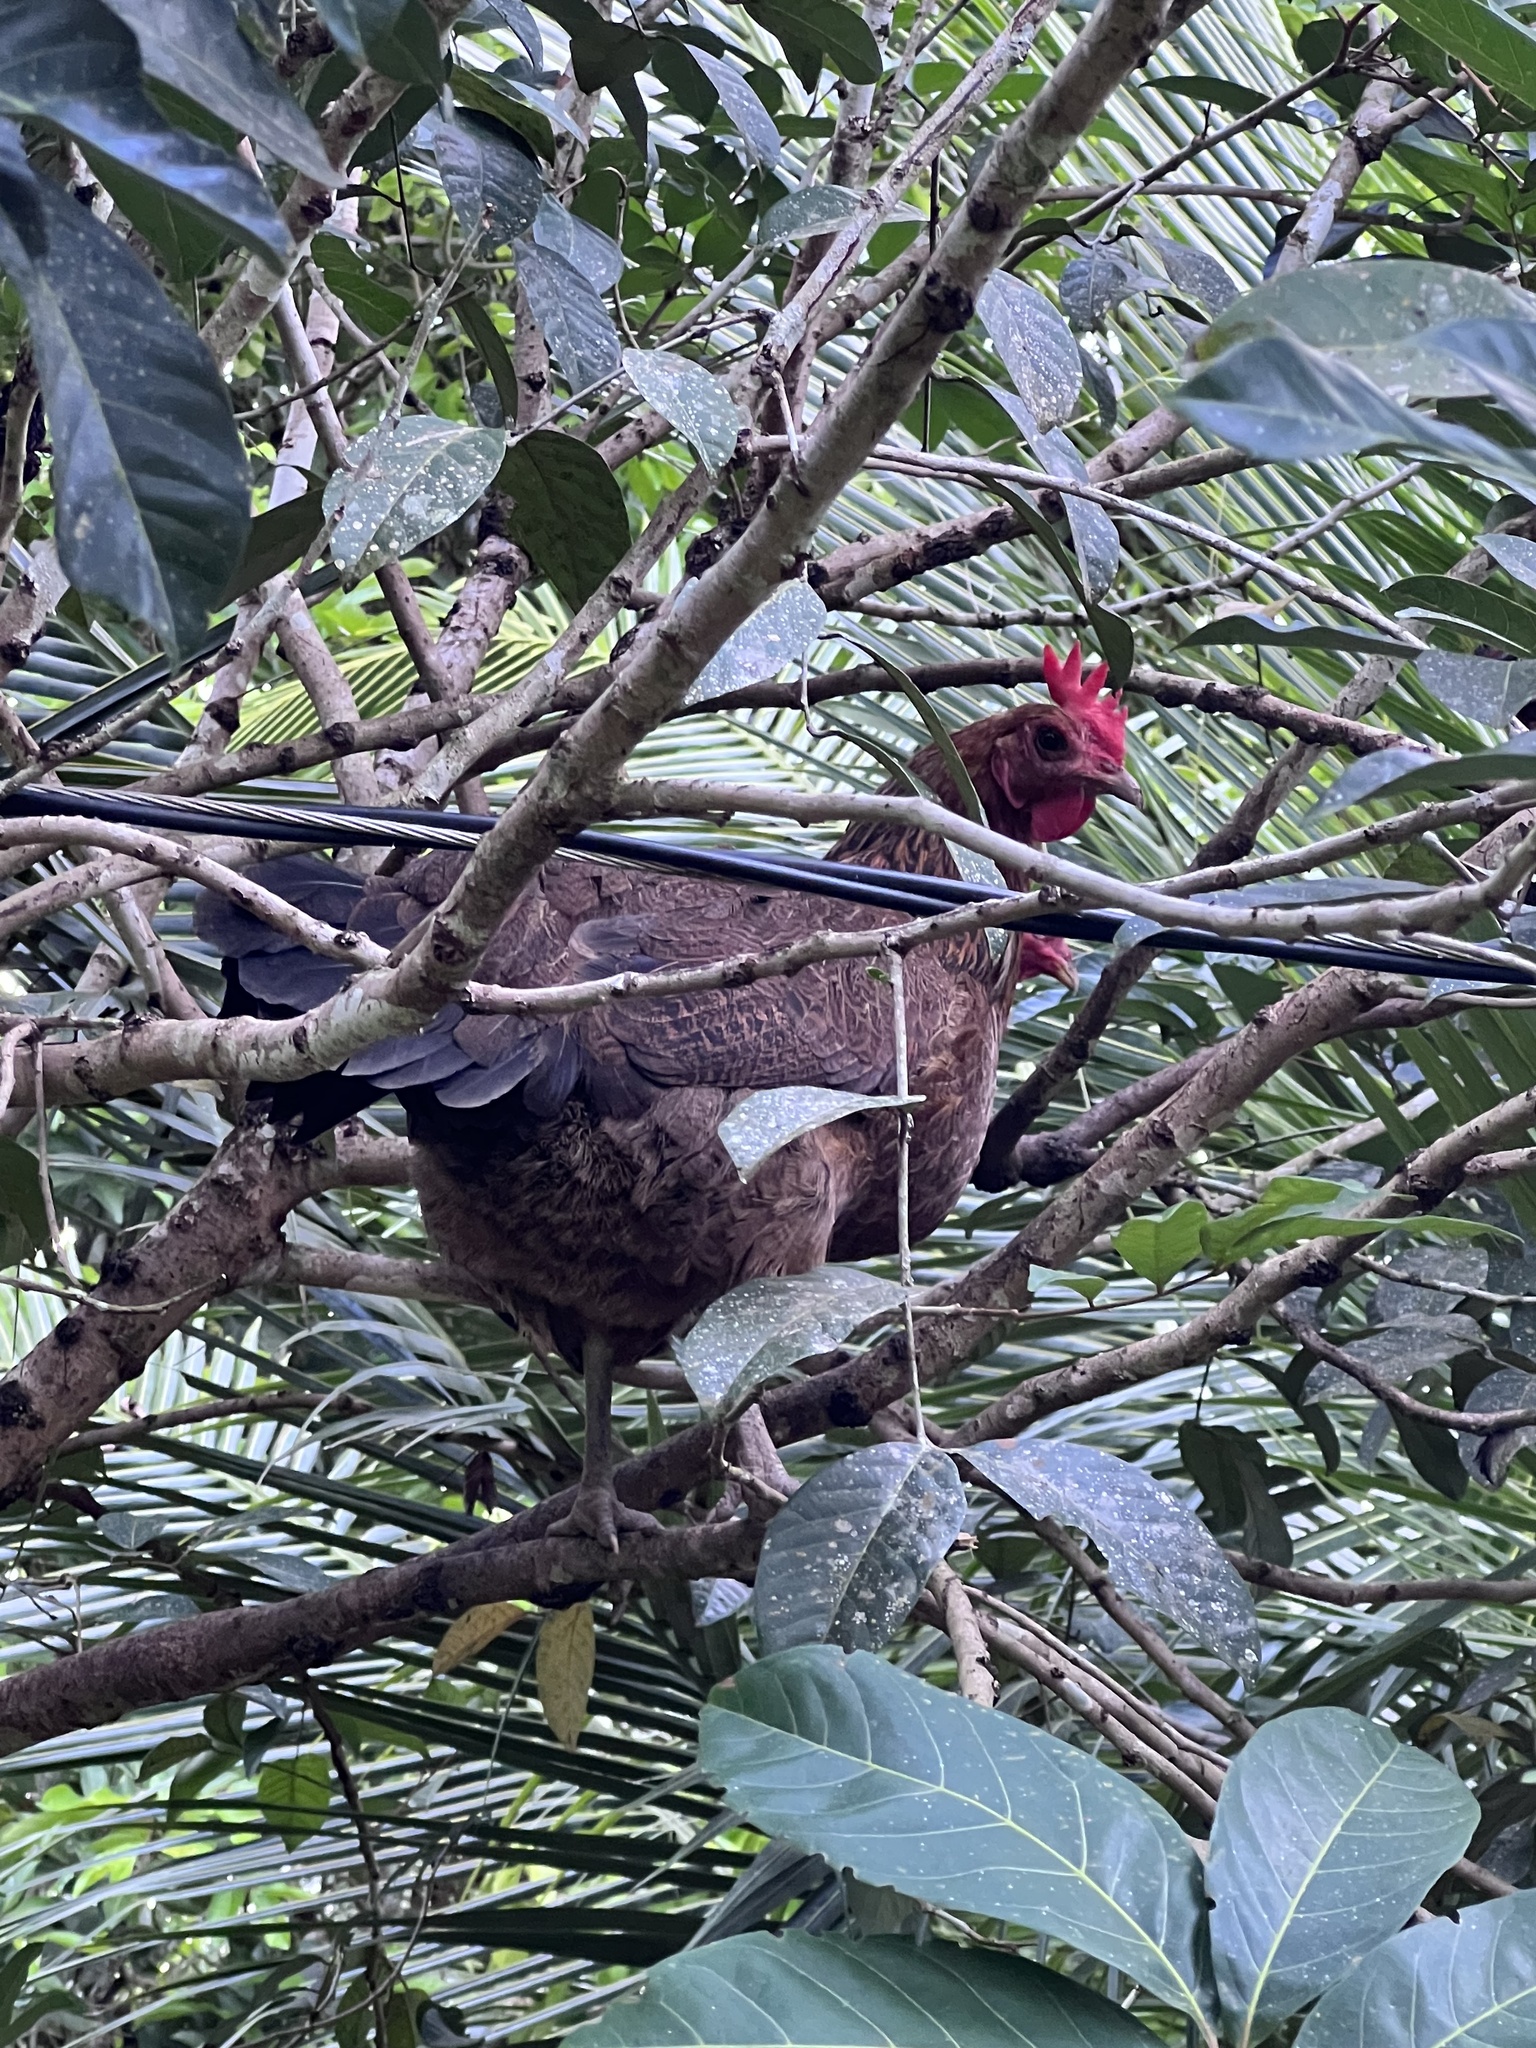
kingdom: Animalia
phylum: Chordata
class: Aves
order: Galliformes
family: Phasianidae
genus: Gallus
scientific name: Gallus gallus
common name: Red junglefowl
